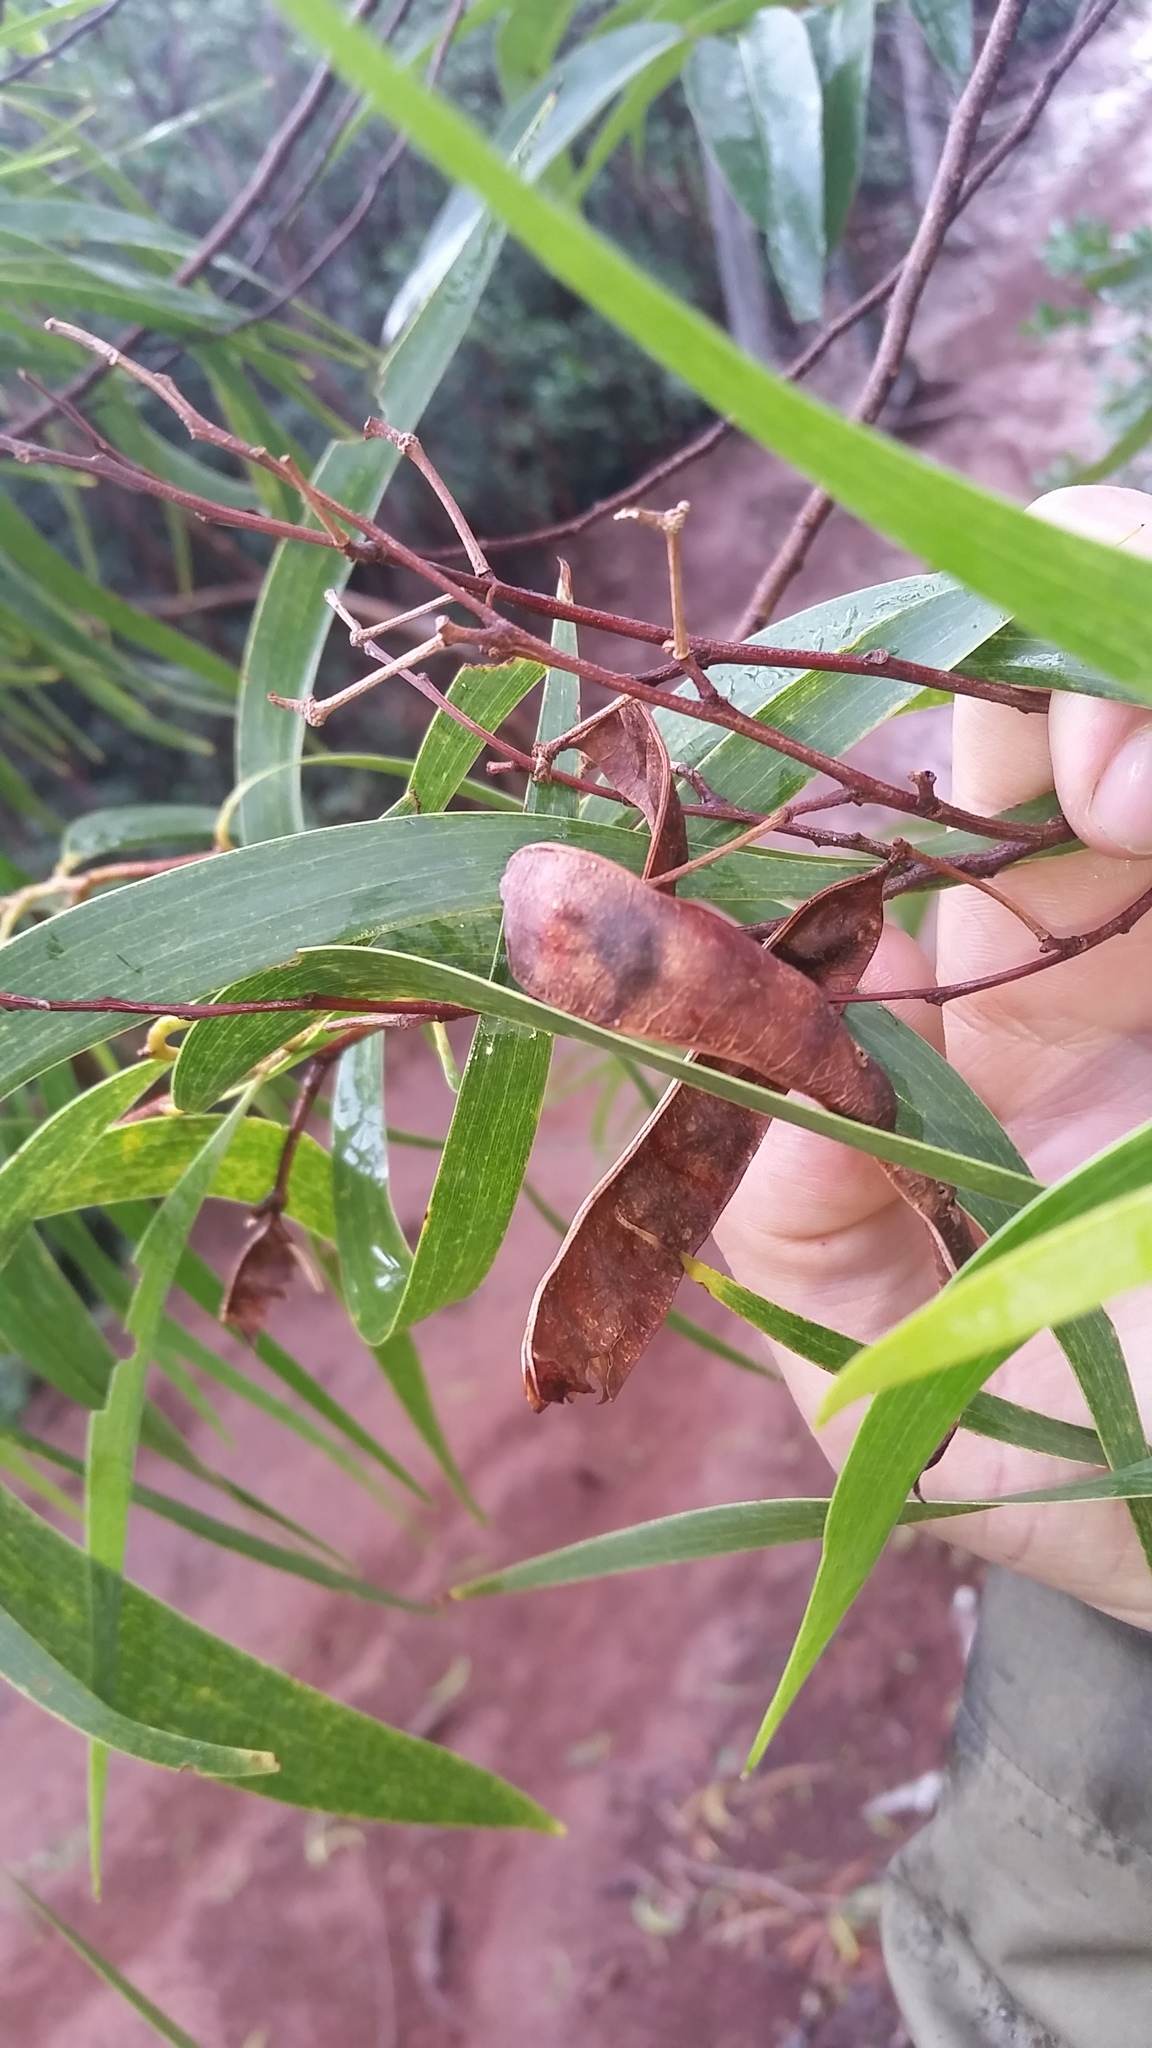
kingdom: Plantae
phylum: Tracheophyta
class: Magnoliopsida
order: Fabales
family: Fabaceae
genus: Acacia
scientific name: Acacia koa
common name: Gray koa
